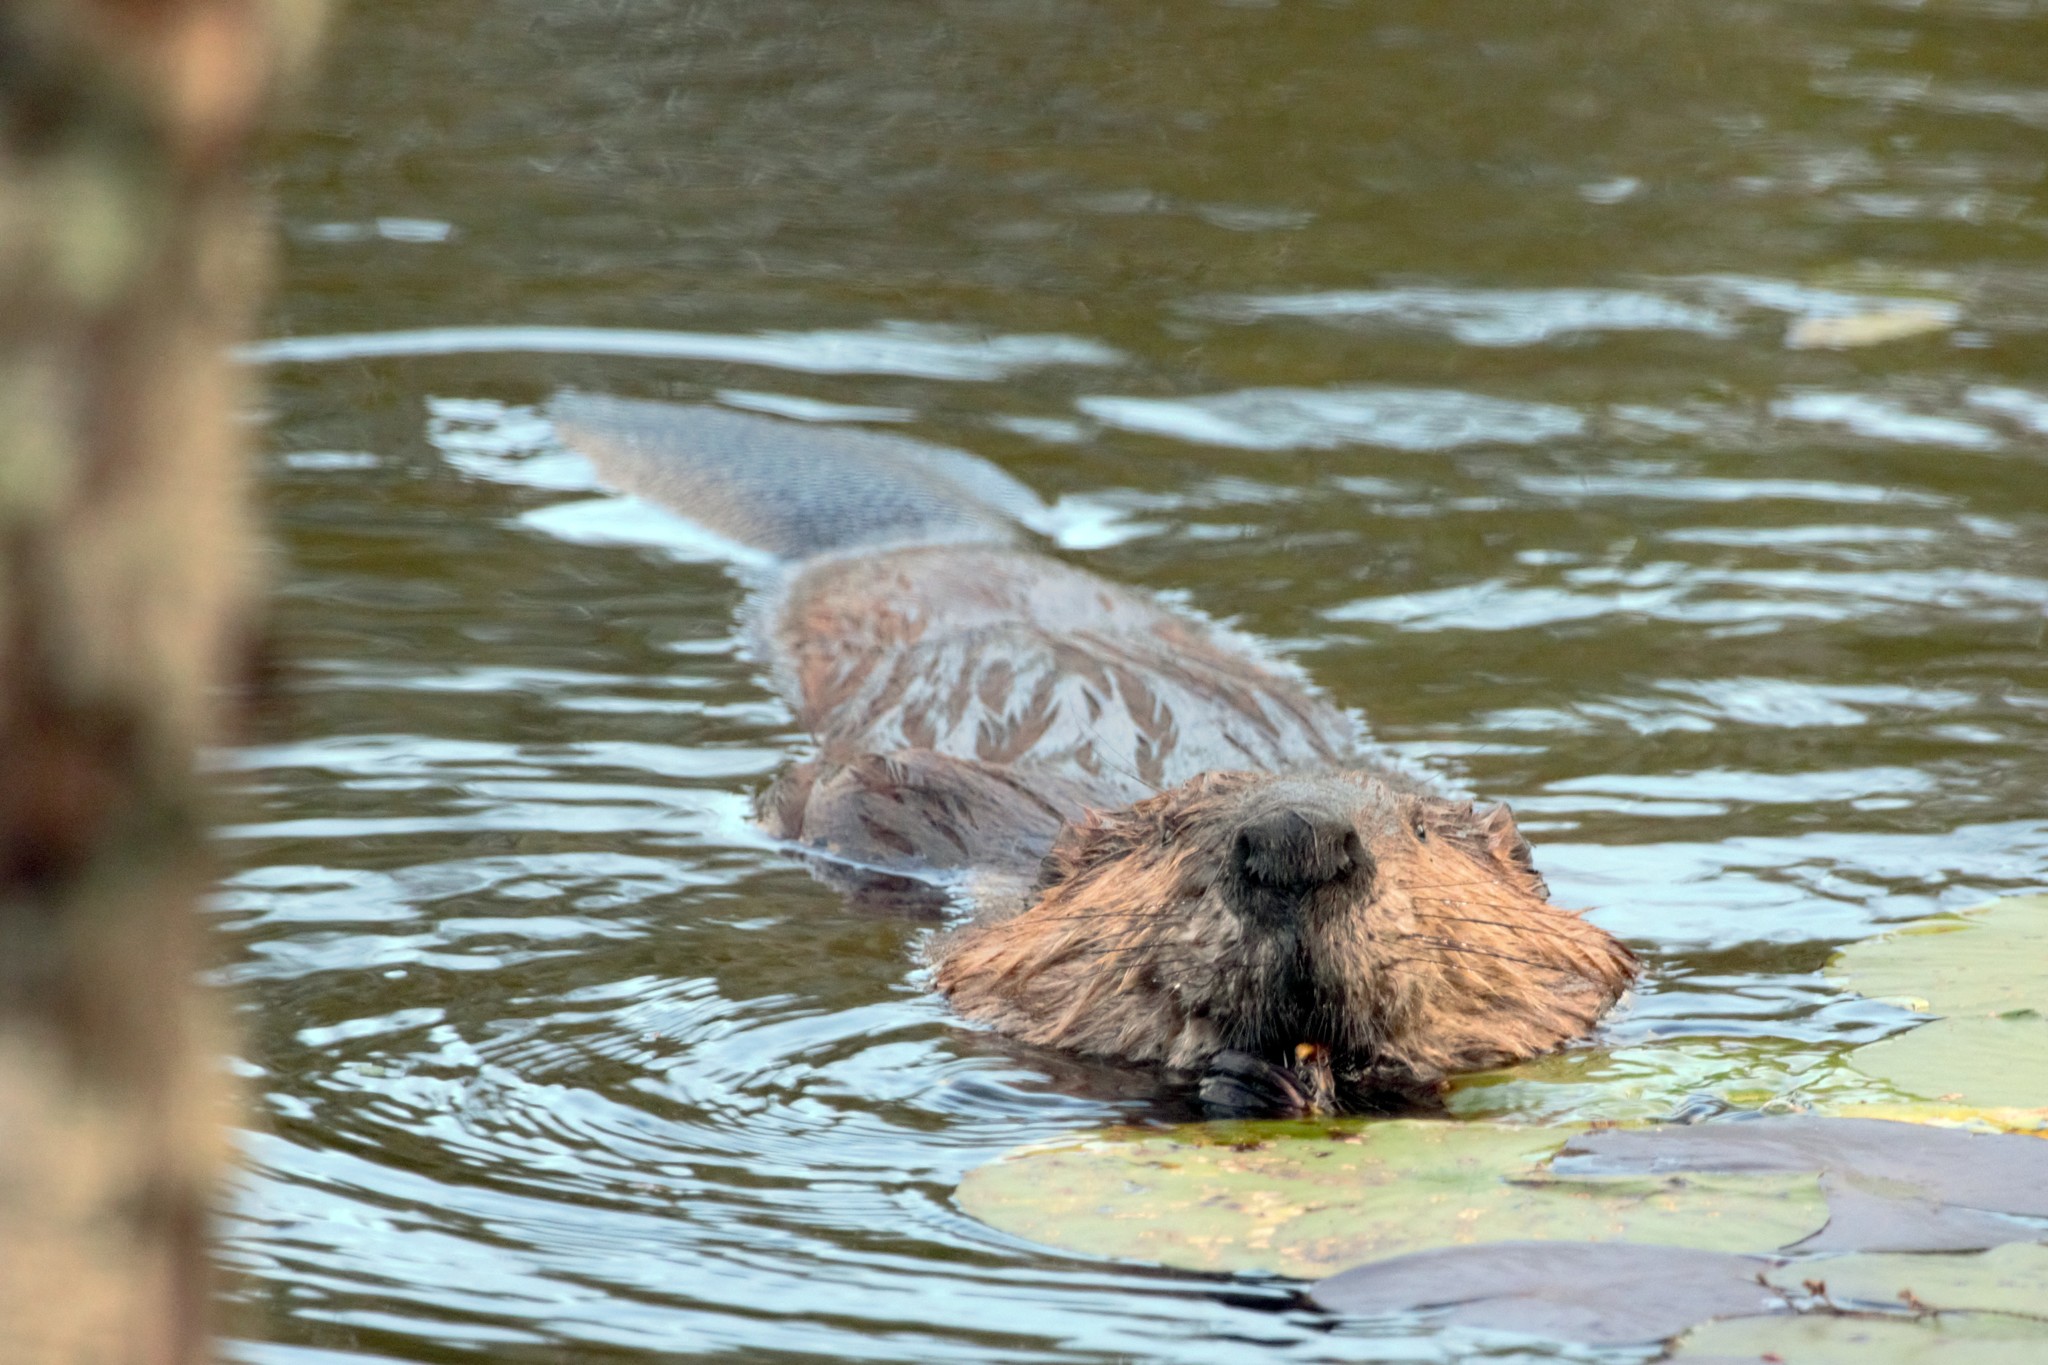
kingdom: Animalia
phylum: Chordata
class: Mammalia
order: Rodentia
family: Castoridae
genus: Castor
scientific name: Castor canadensis
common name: American beaver
